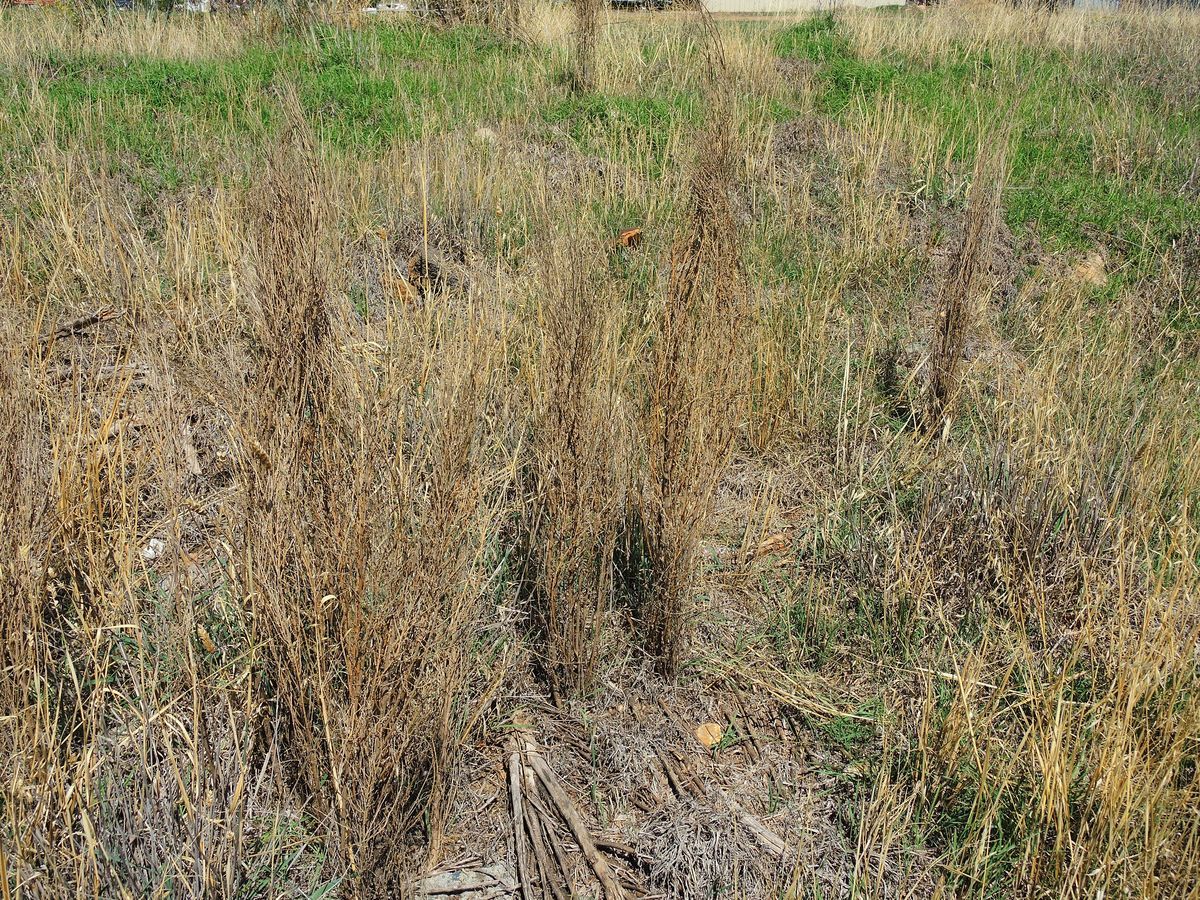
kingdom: Plantae
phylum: Tracheophyta
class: Magnoliopsida
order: Fabales
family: Fabaceae
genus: Genista
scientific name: Genista monspessulana
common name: Montpellier broom
